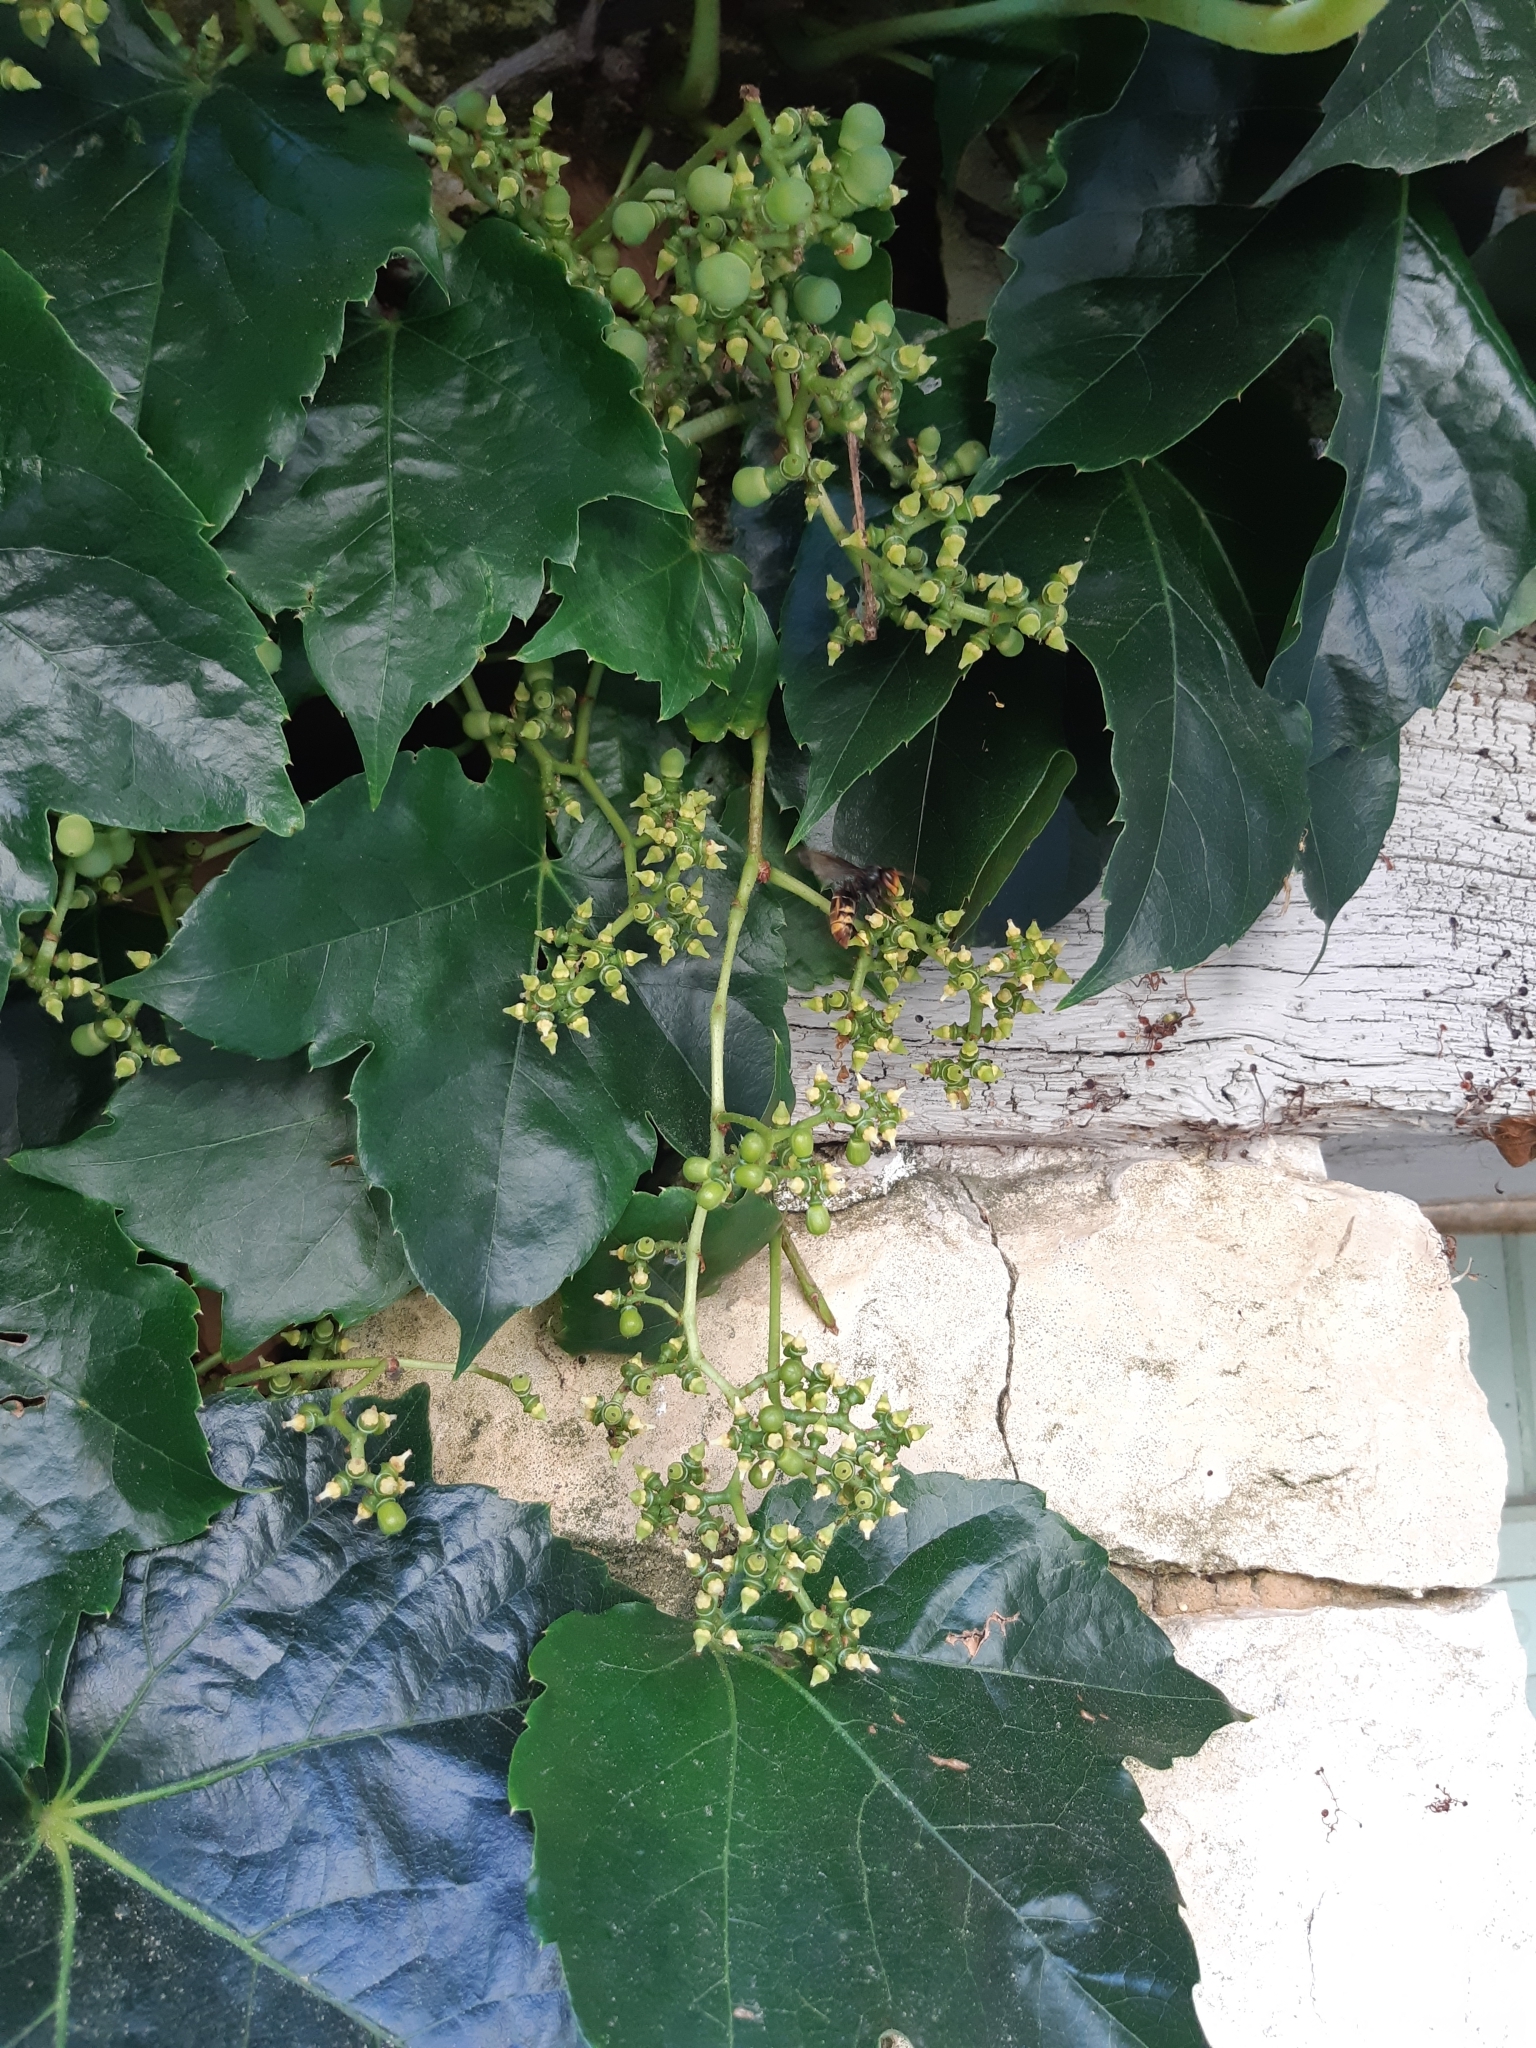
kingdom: Animalia
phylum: Arthropoda
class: Insecta
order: Hymenoptera
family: Vespidae
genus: Vespa
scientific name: Vespa velutina
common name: Asian hornet
